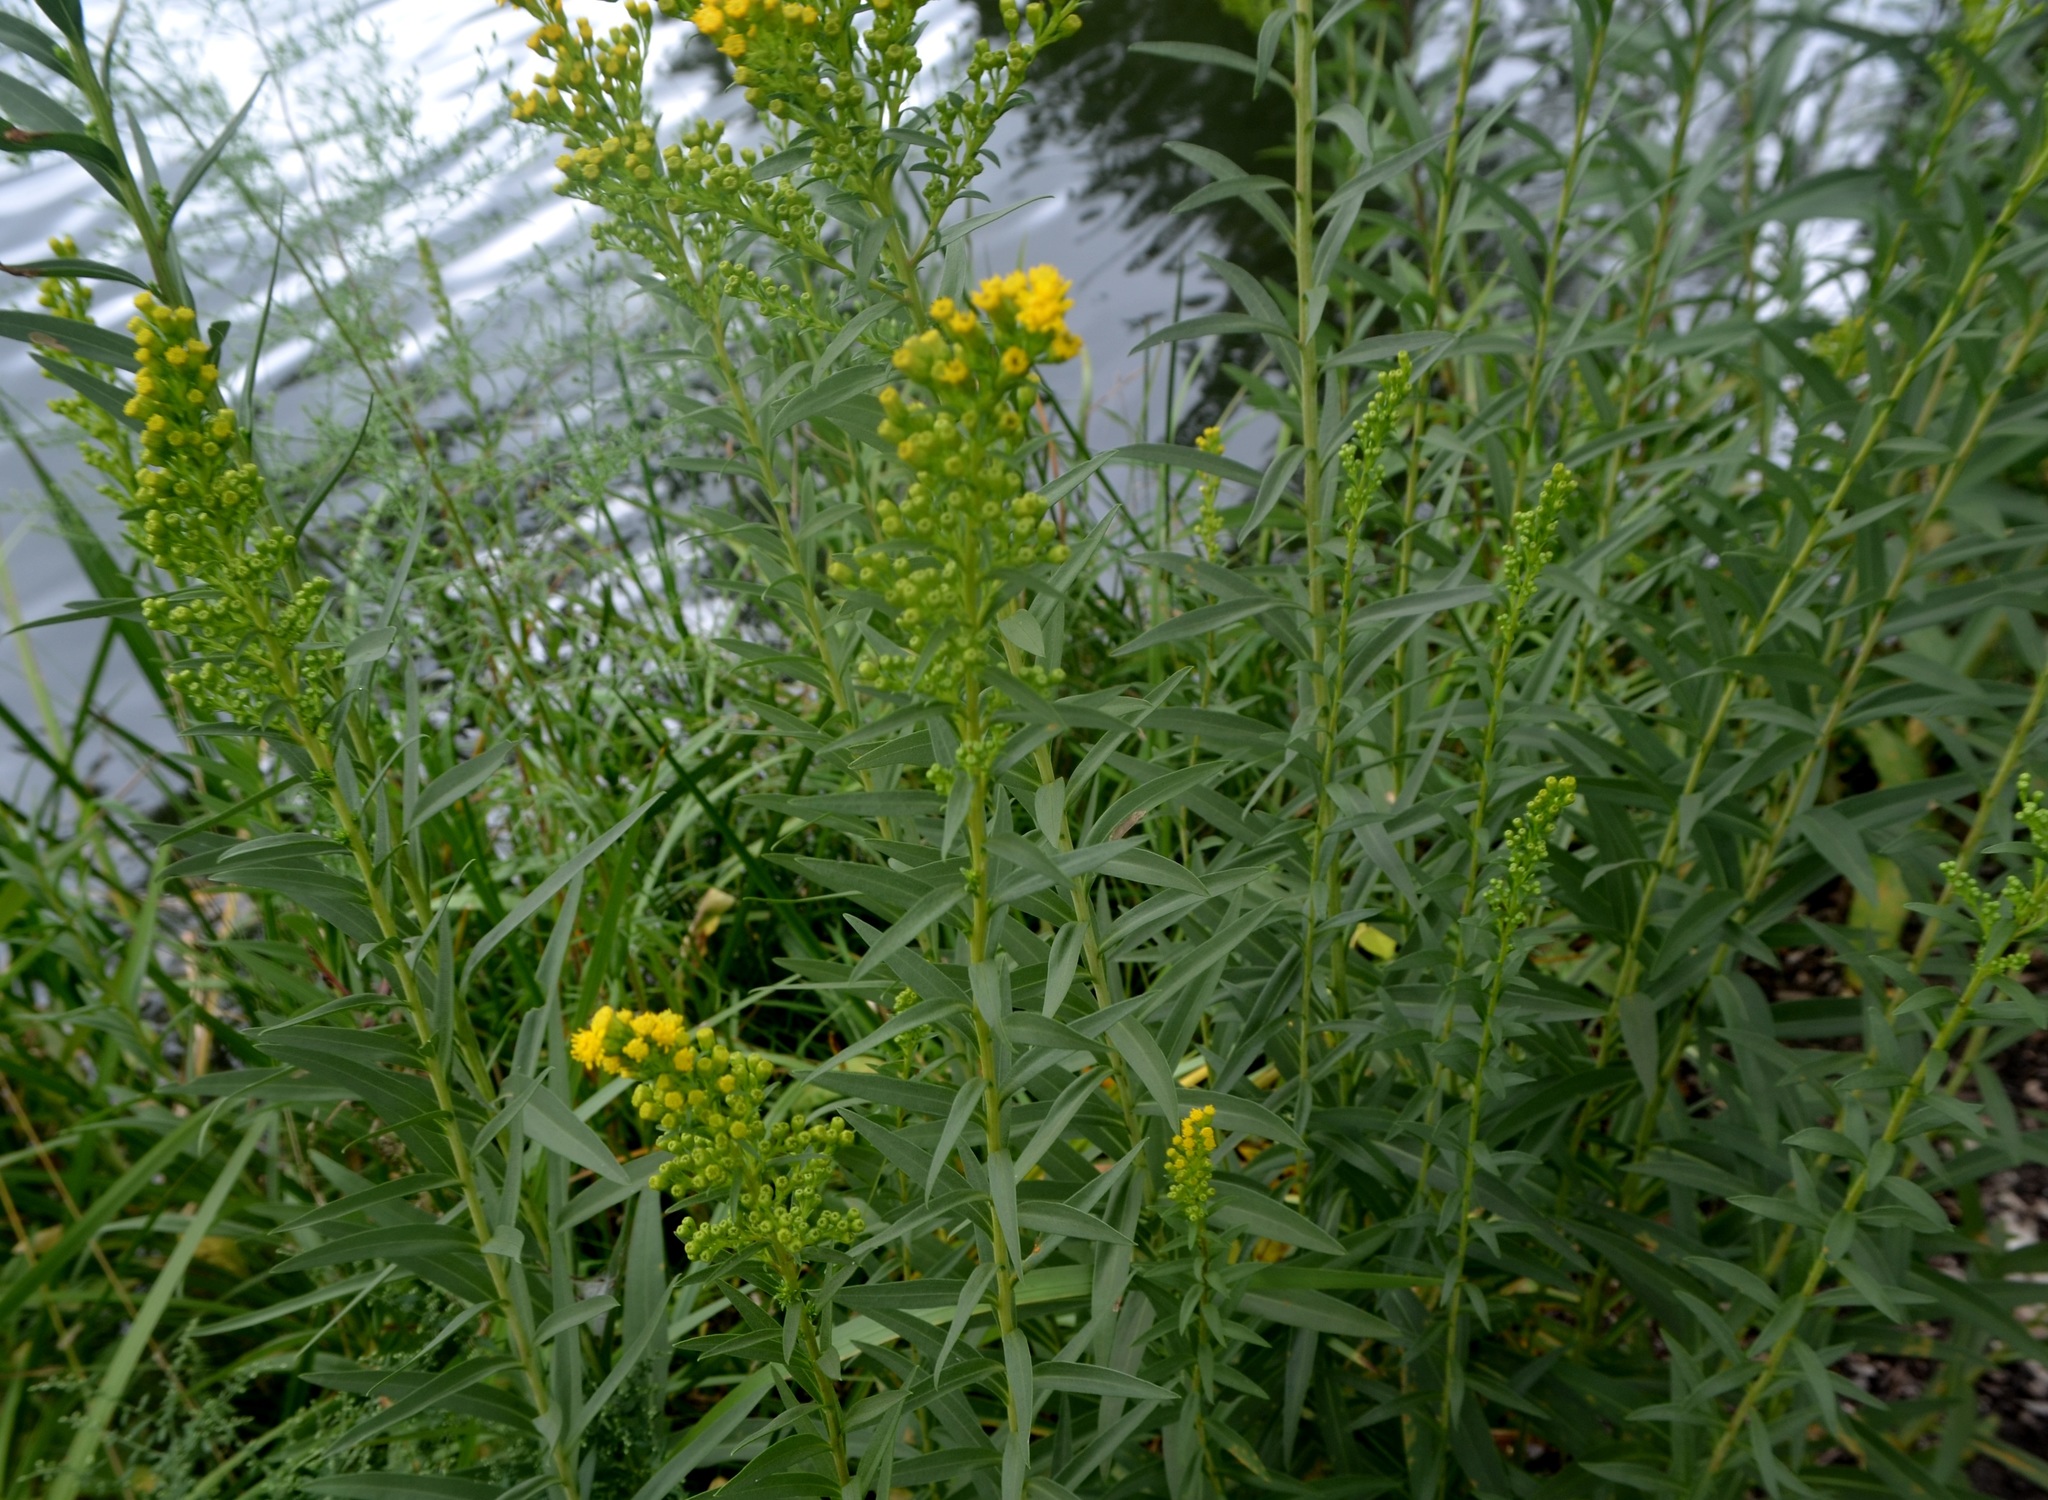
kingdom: Plantae
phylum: Tracheophyta
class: Magnoliopsida
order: Asterales
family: Asteraceae
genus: Solidago
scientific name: Solidago sempervirens
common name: Salt-marsh goldenrod
